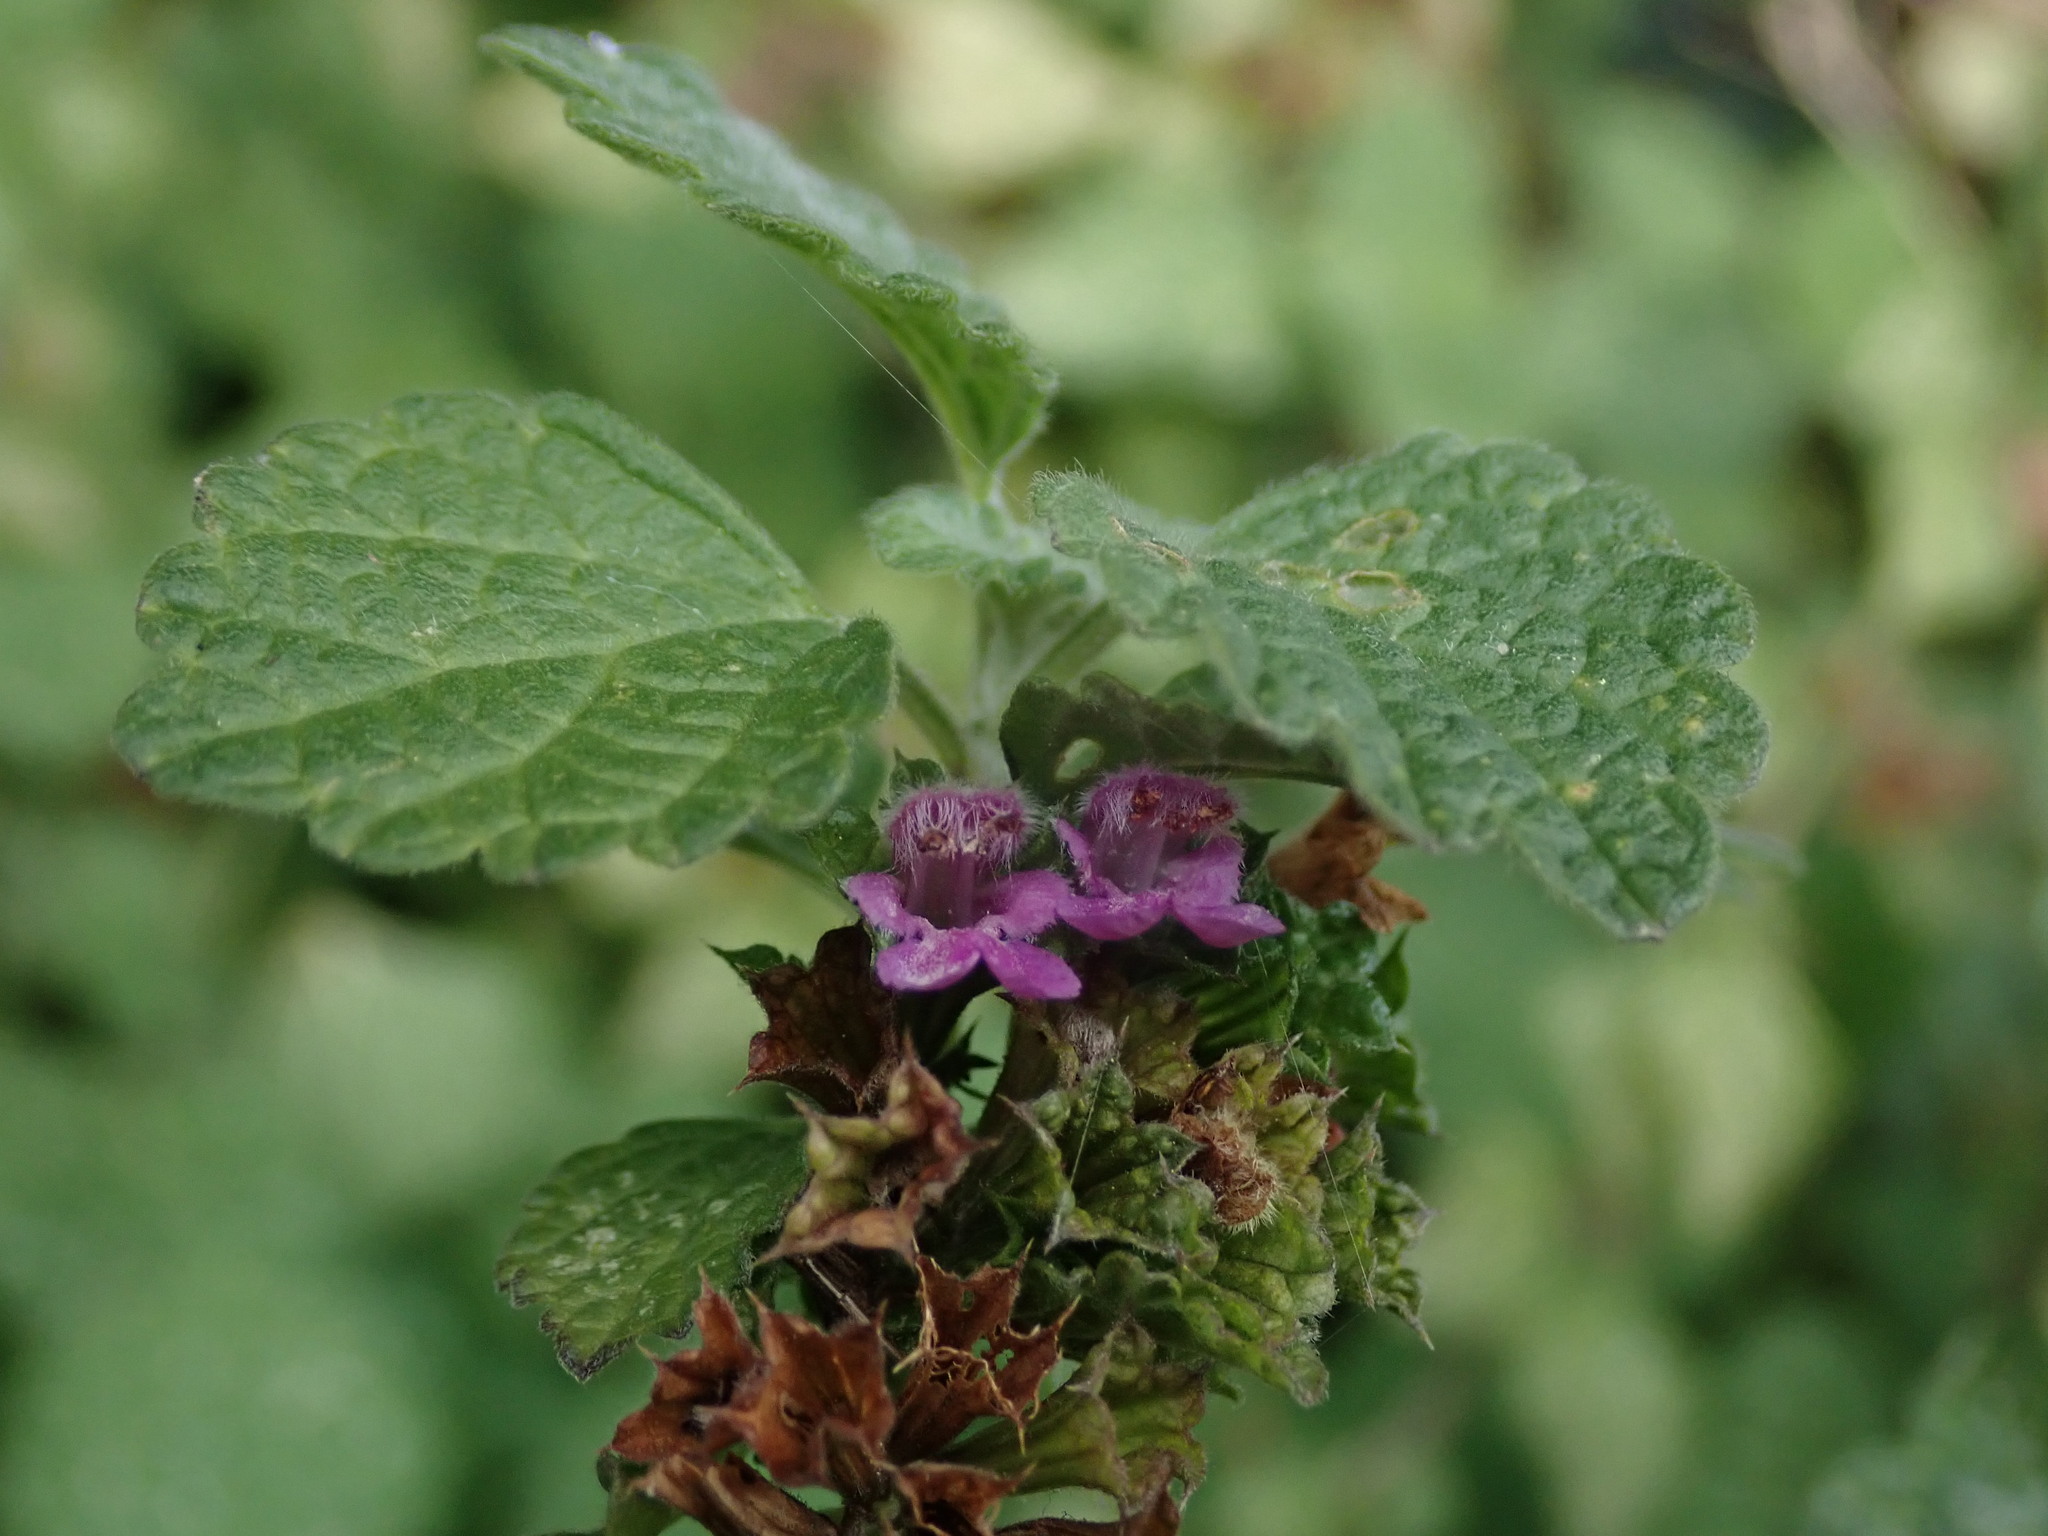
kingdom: Plantae
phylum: Tracheophyta
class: Magnoliopsida
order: Lamiales
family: Lamiaceae
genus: Ballota
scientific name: Ballota nigra
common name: Black horehound
